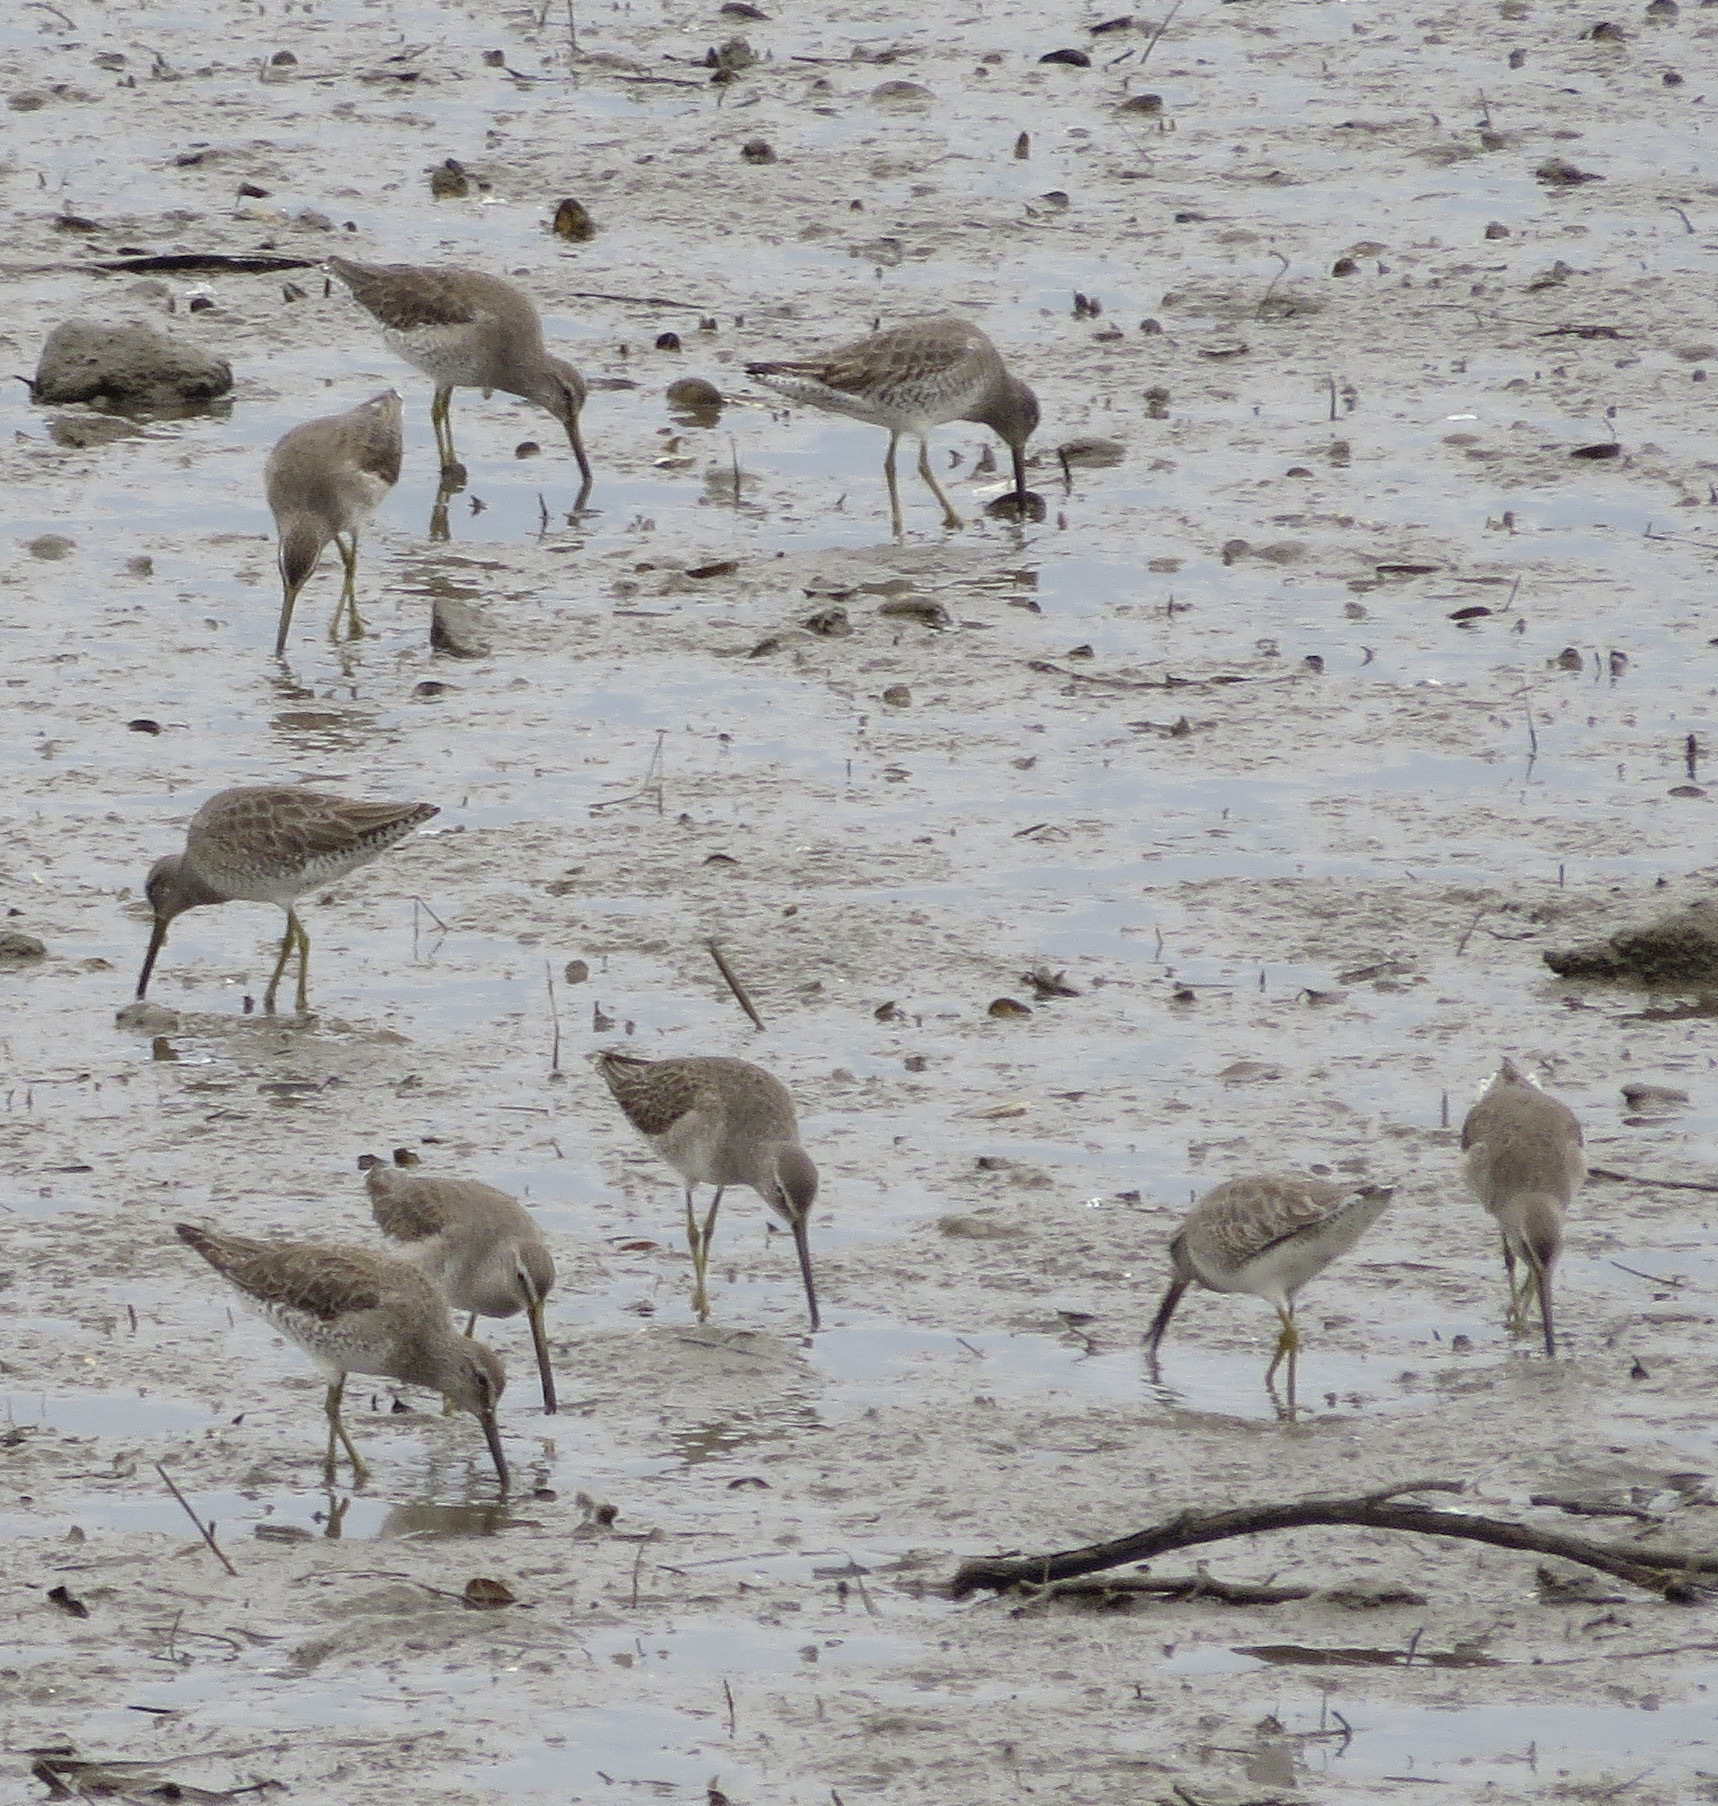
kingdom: Animalia
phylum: Chordata
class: Aves
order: Charadriiformes
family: Scolopacidae
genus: Limnodromus
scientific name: Limnodromus griseus
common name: Short-billed dowitcher
